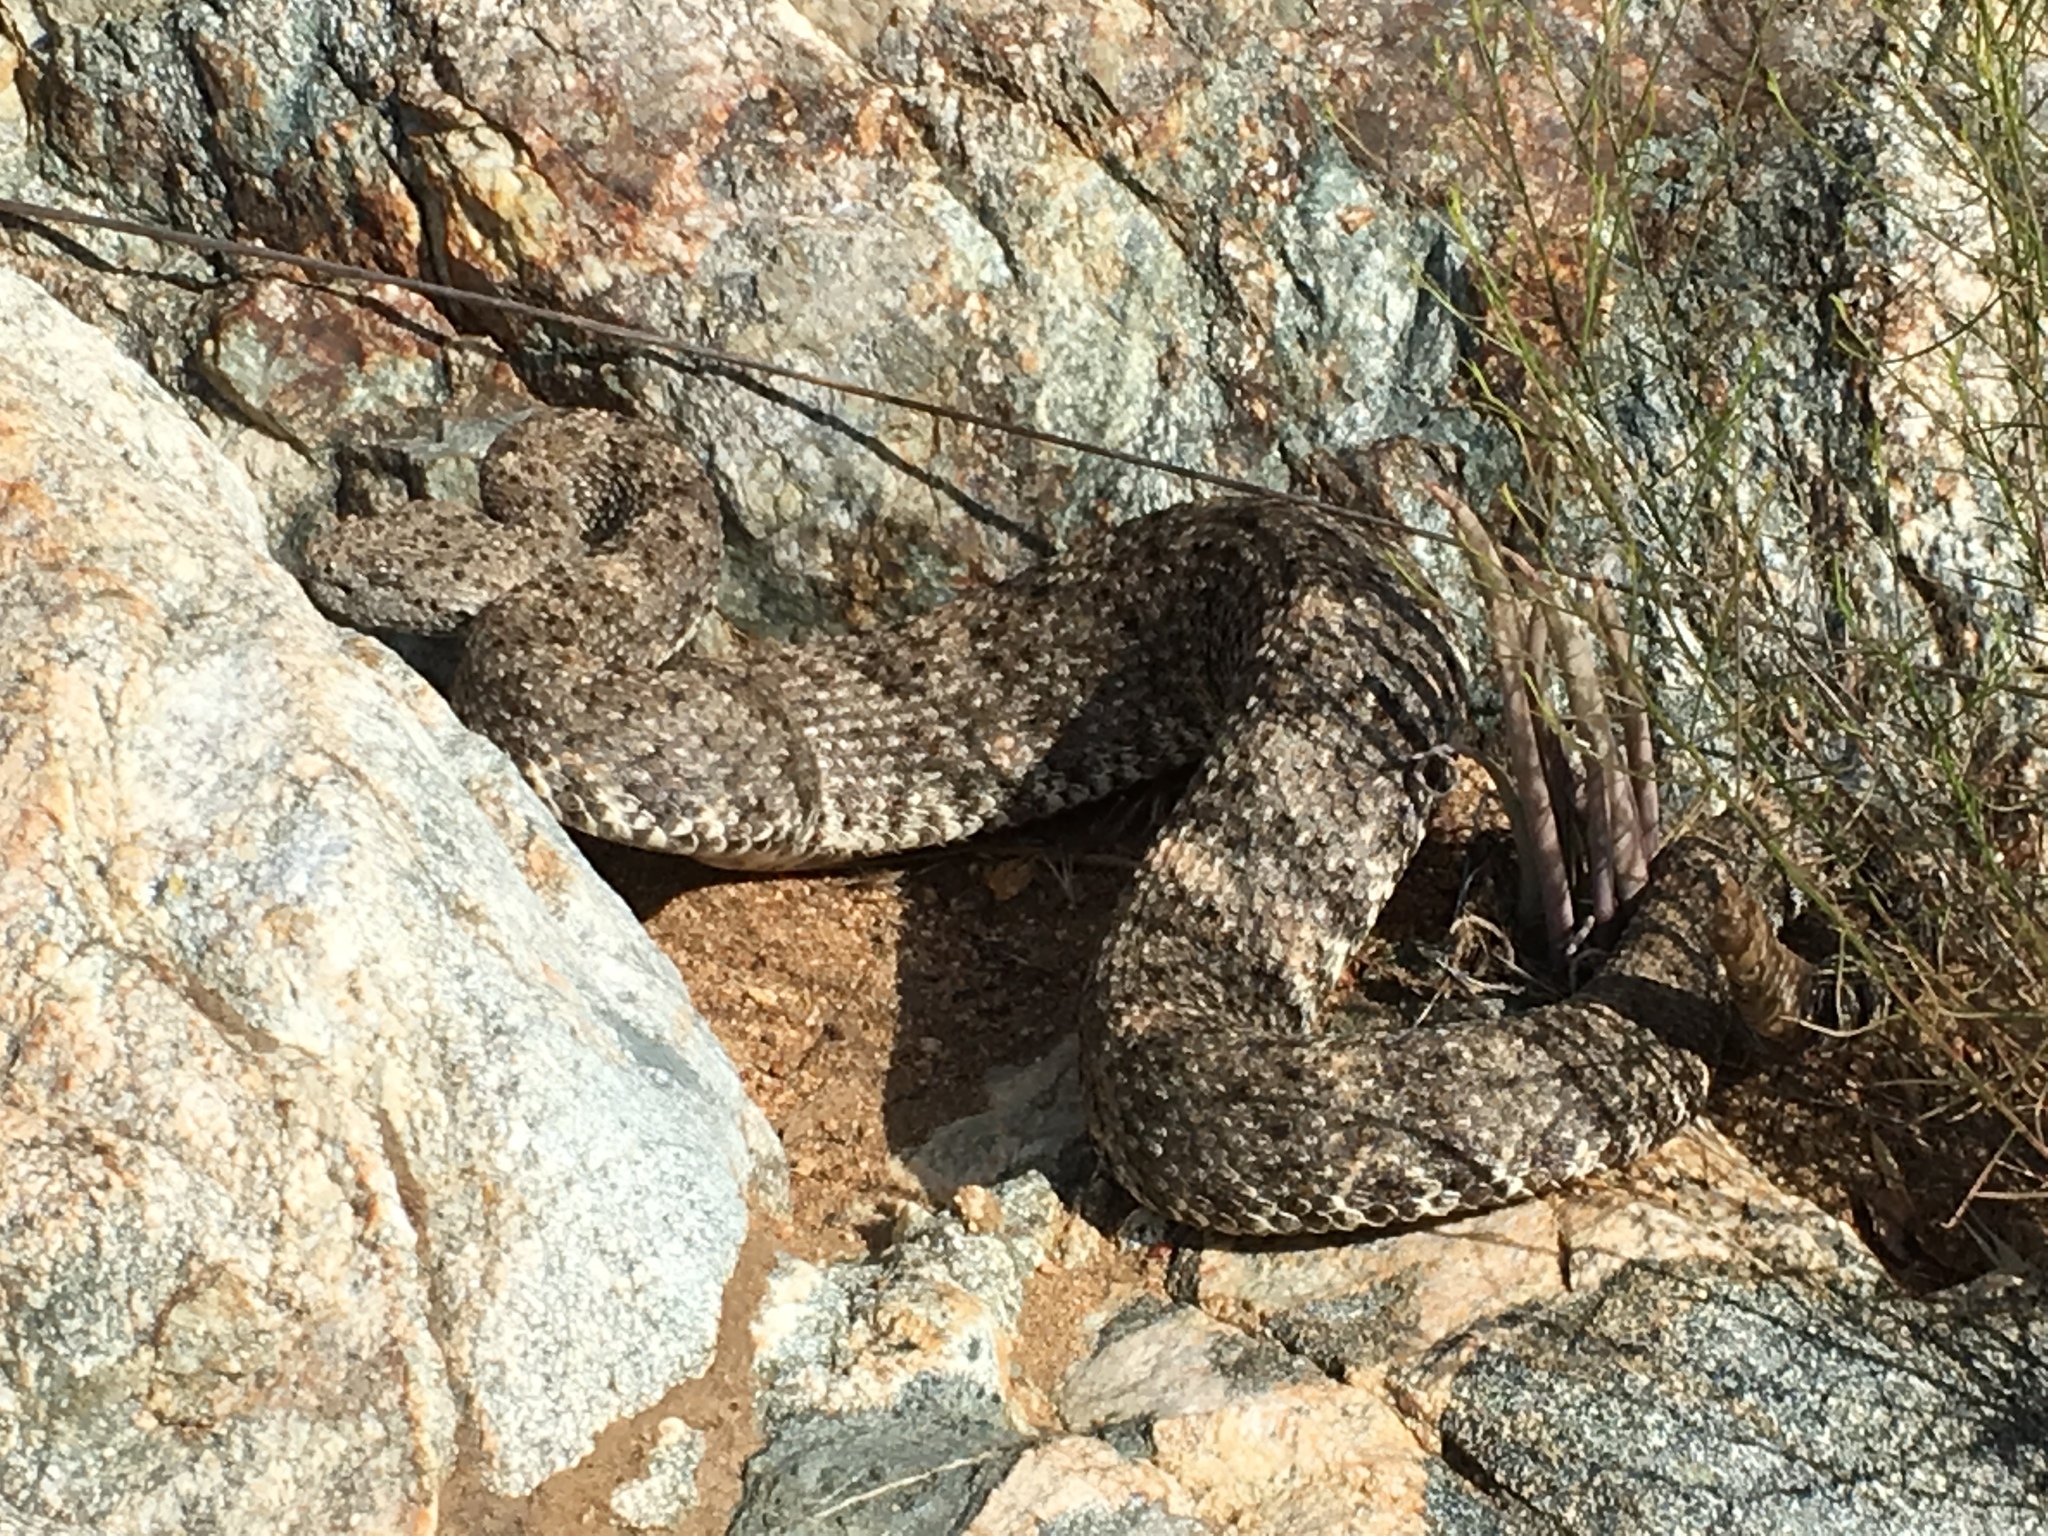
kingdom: Animalia
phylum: Chordata
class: Squamata
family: Viperidae
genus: Crotalus
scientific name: Crotalus pyrrhus
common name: Southwestern speckled rattlesnake
